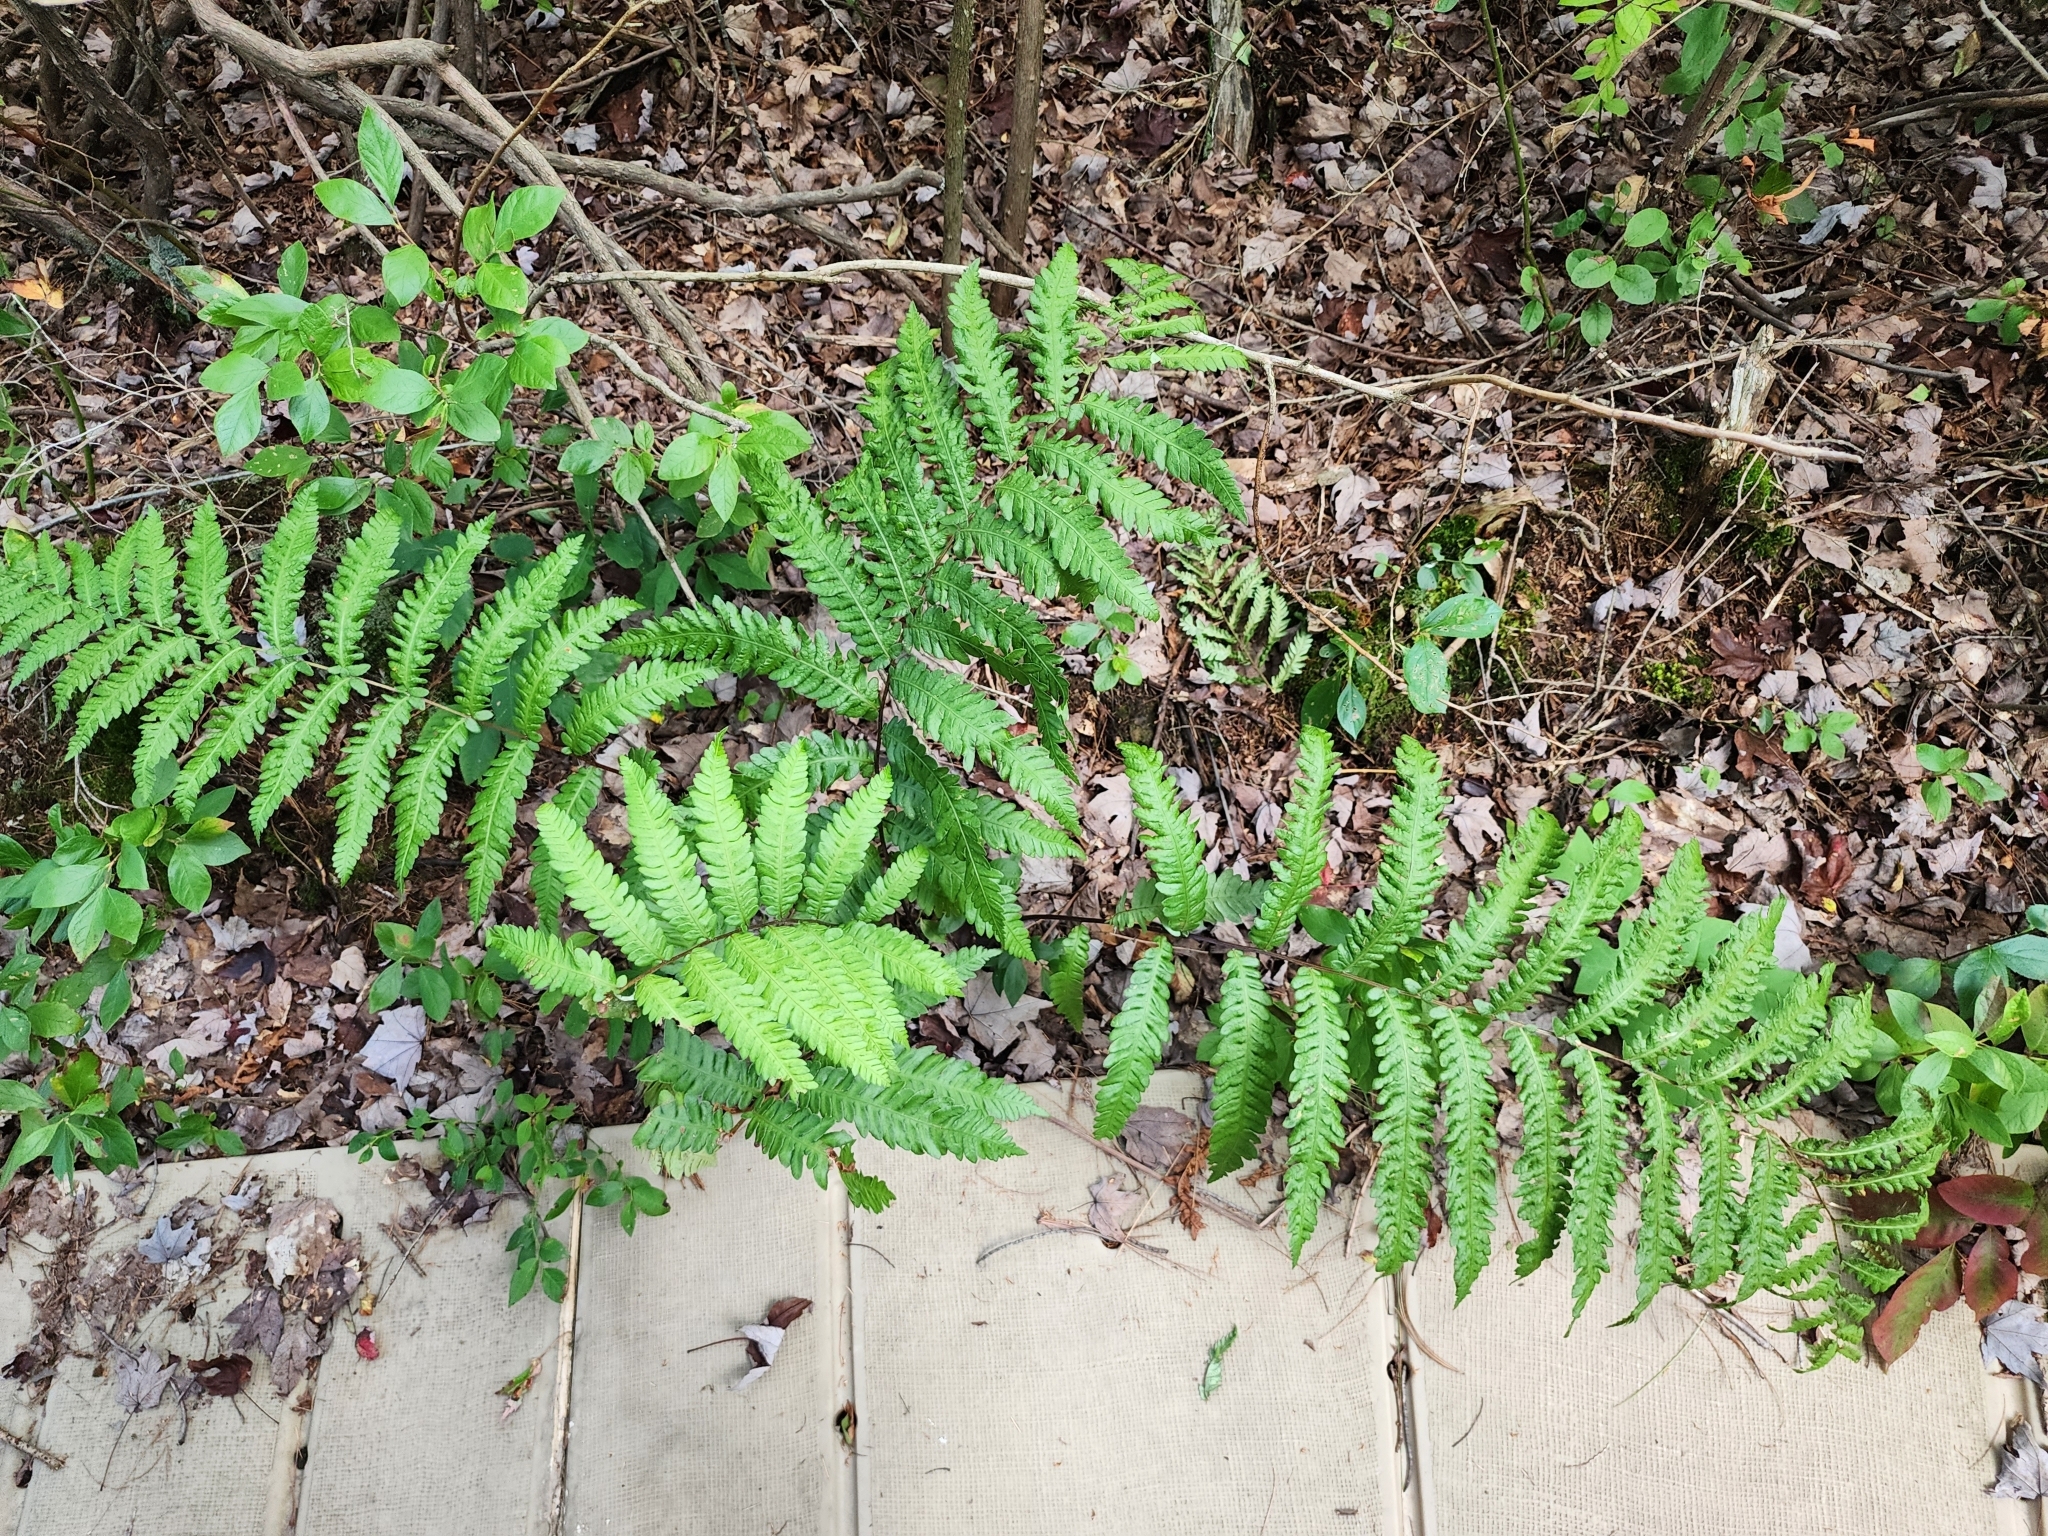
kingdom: Plantae
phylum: Tracheophyta
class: Polypodiopsida
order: Polypodiales
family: Blechnaceae
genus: Anchistea
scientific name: Anchistea virginica
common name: Virginia chain fern
